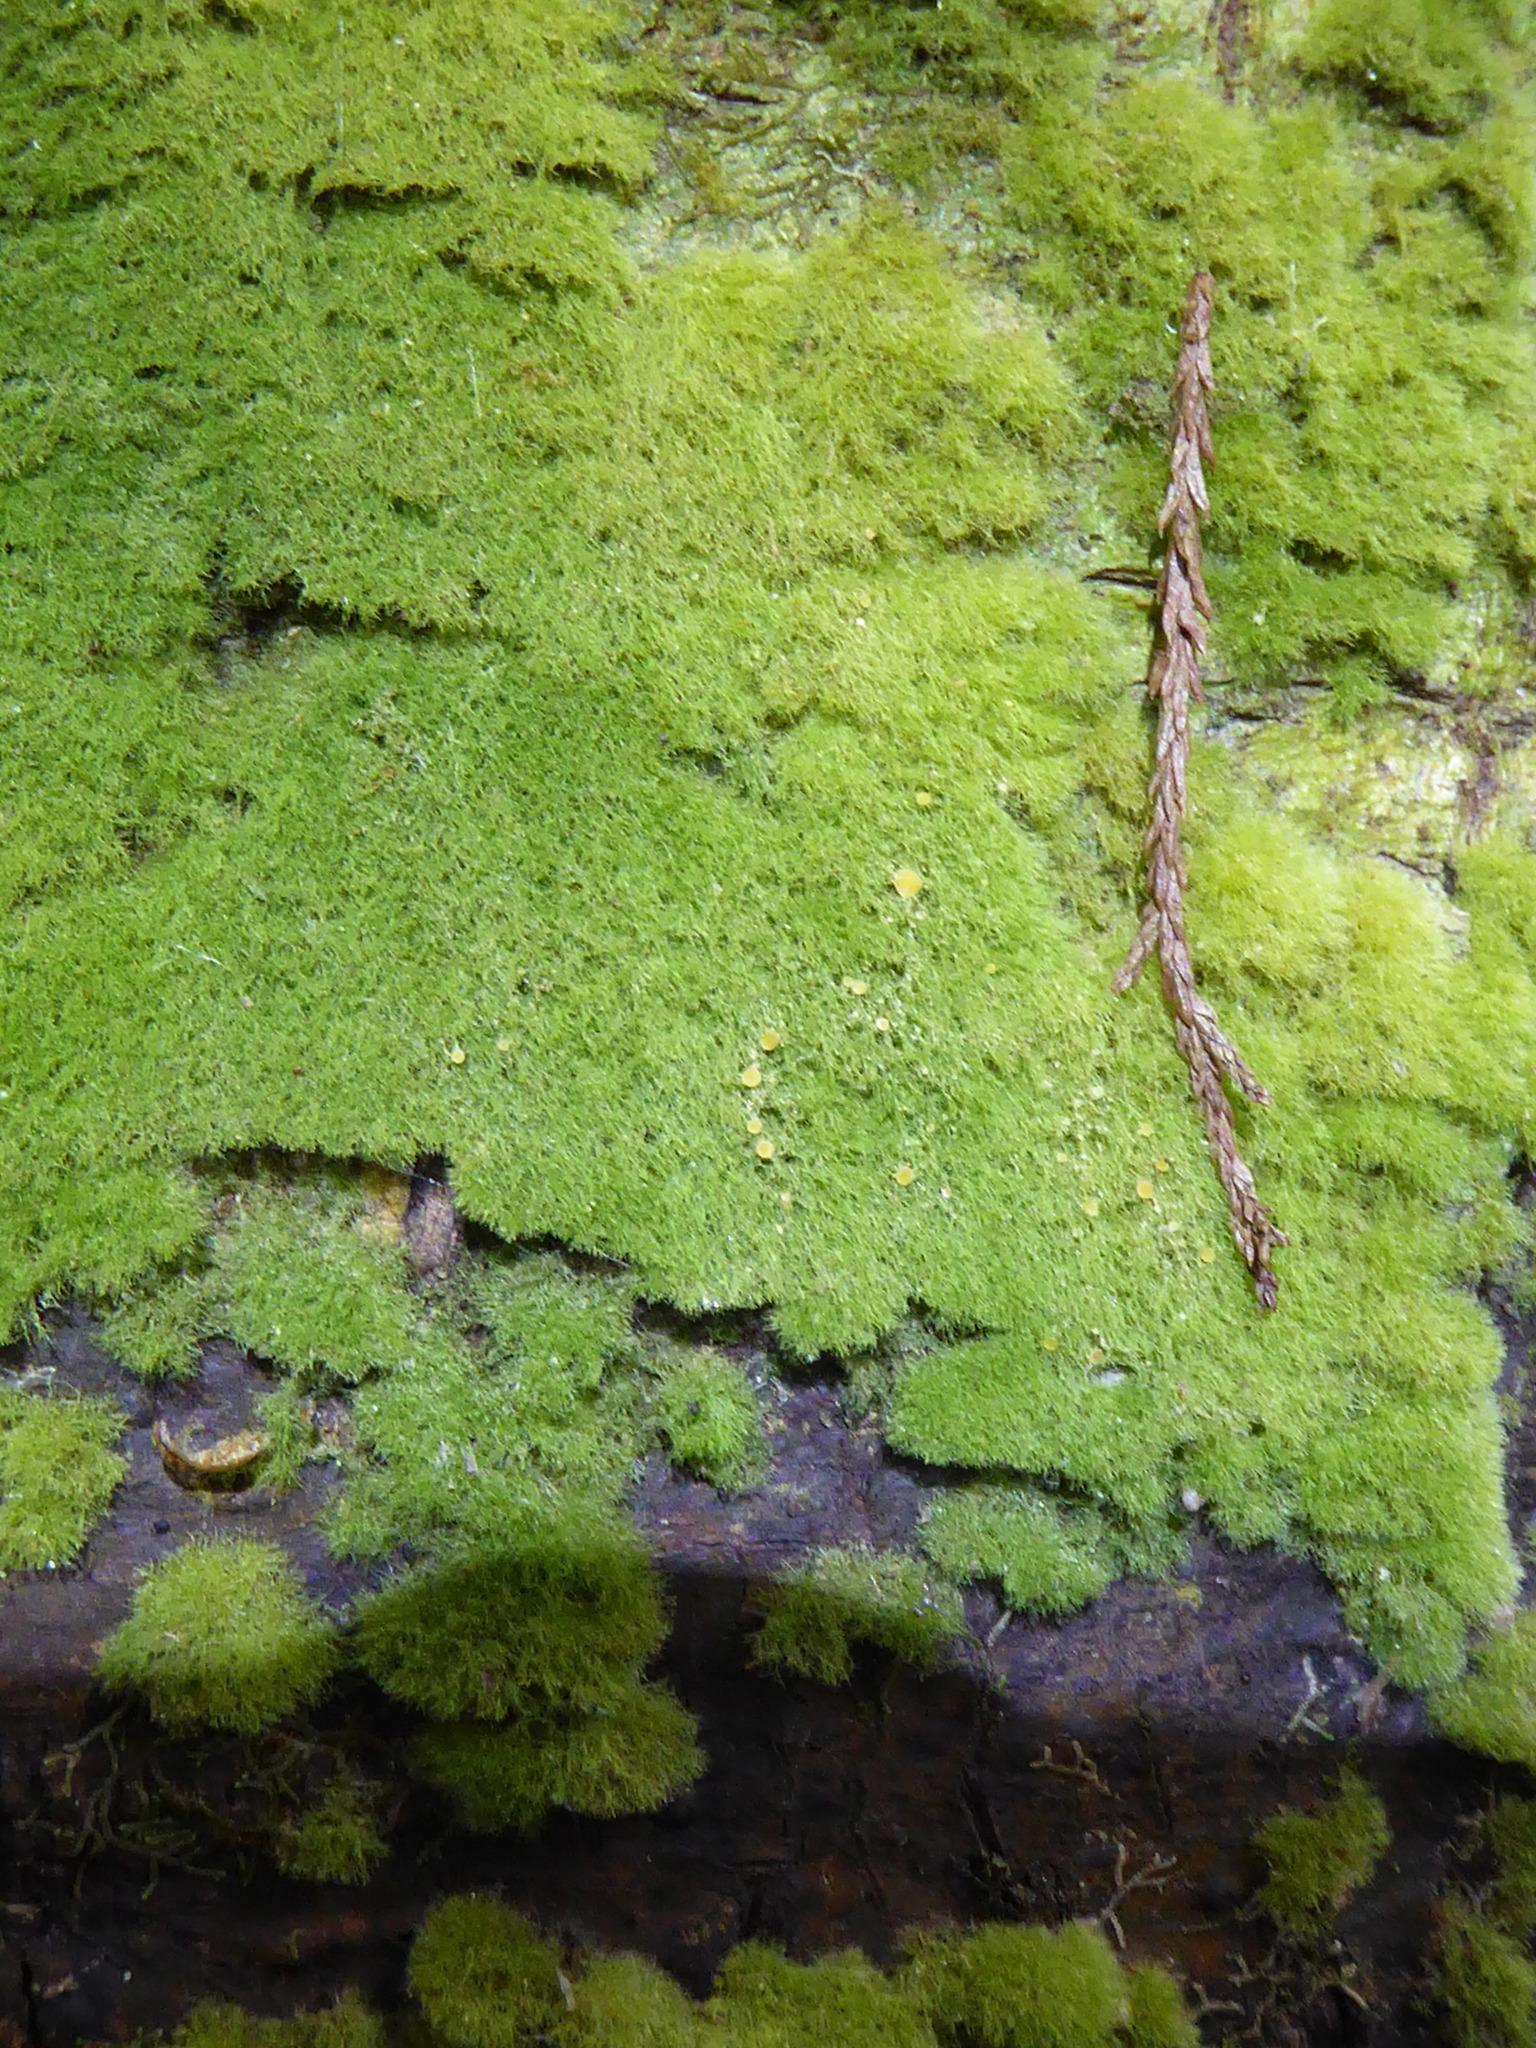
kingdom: Fungi
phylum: Ascomycota
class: Lecanoromycetes
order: Ostropales
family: Coenogoniaceae
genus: Coenogonium
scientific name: Coenogonium implexum
